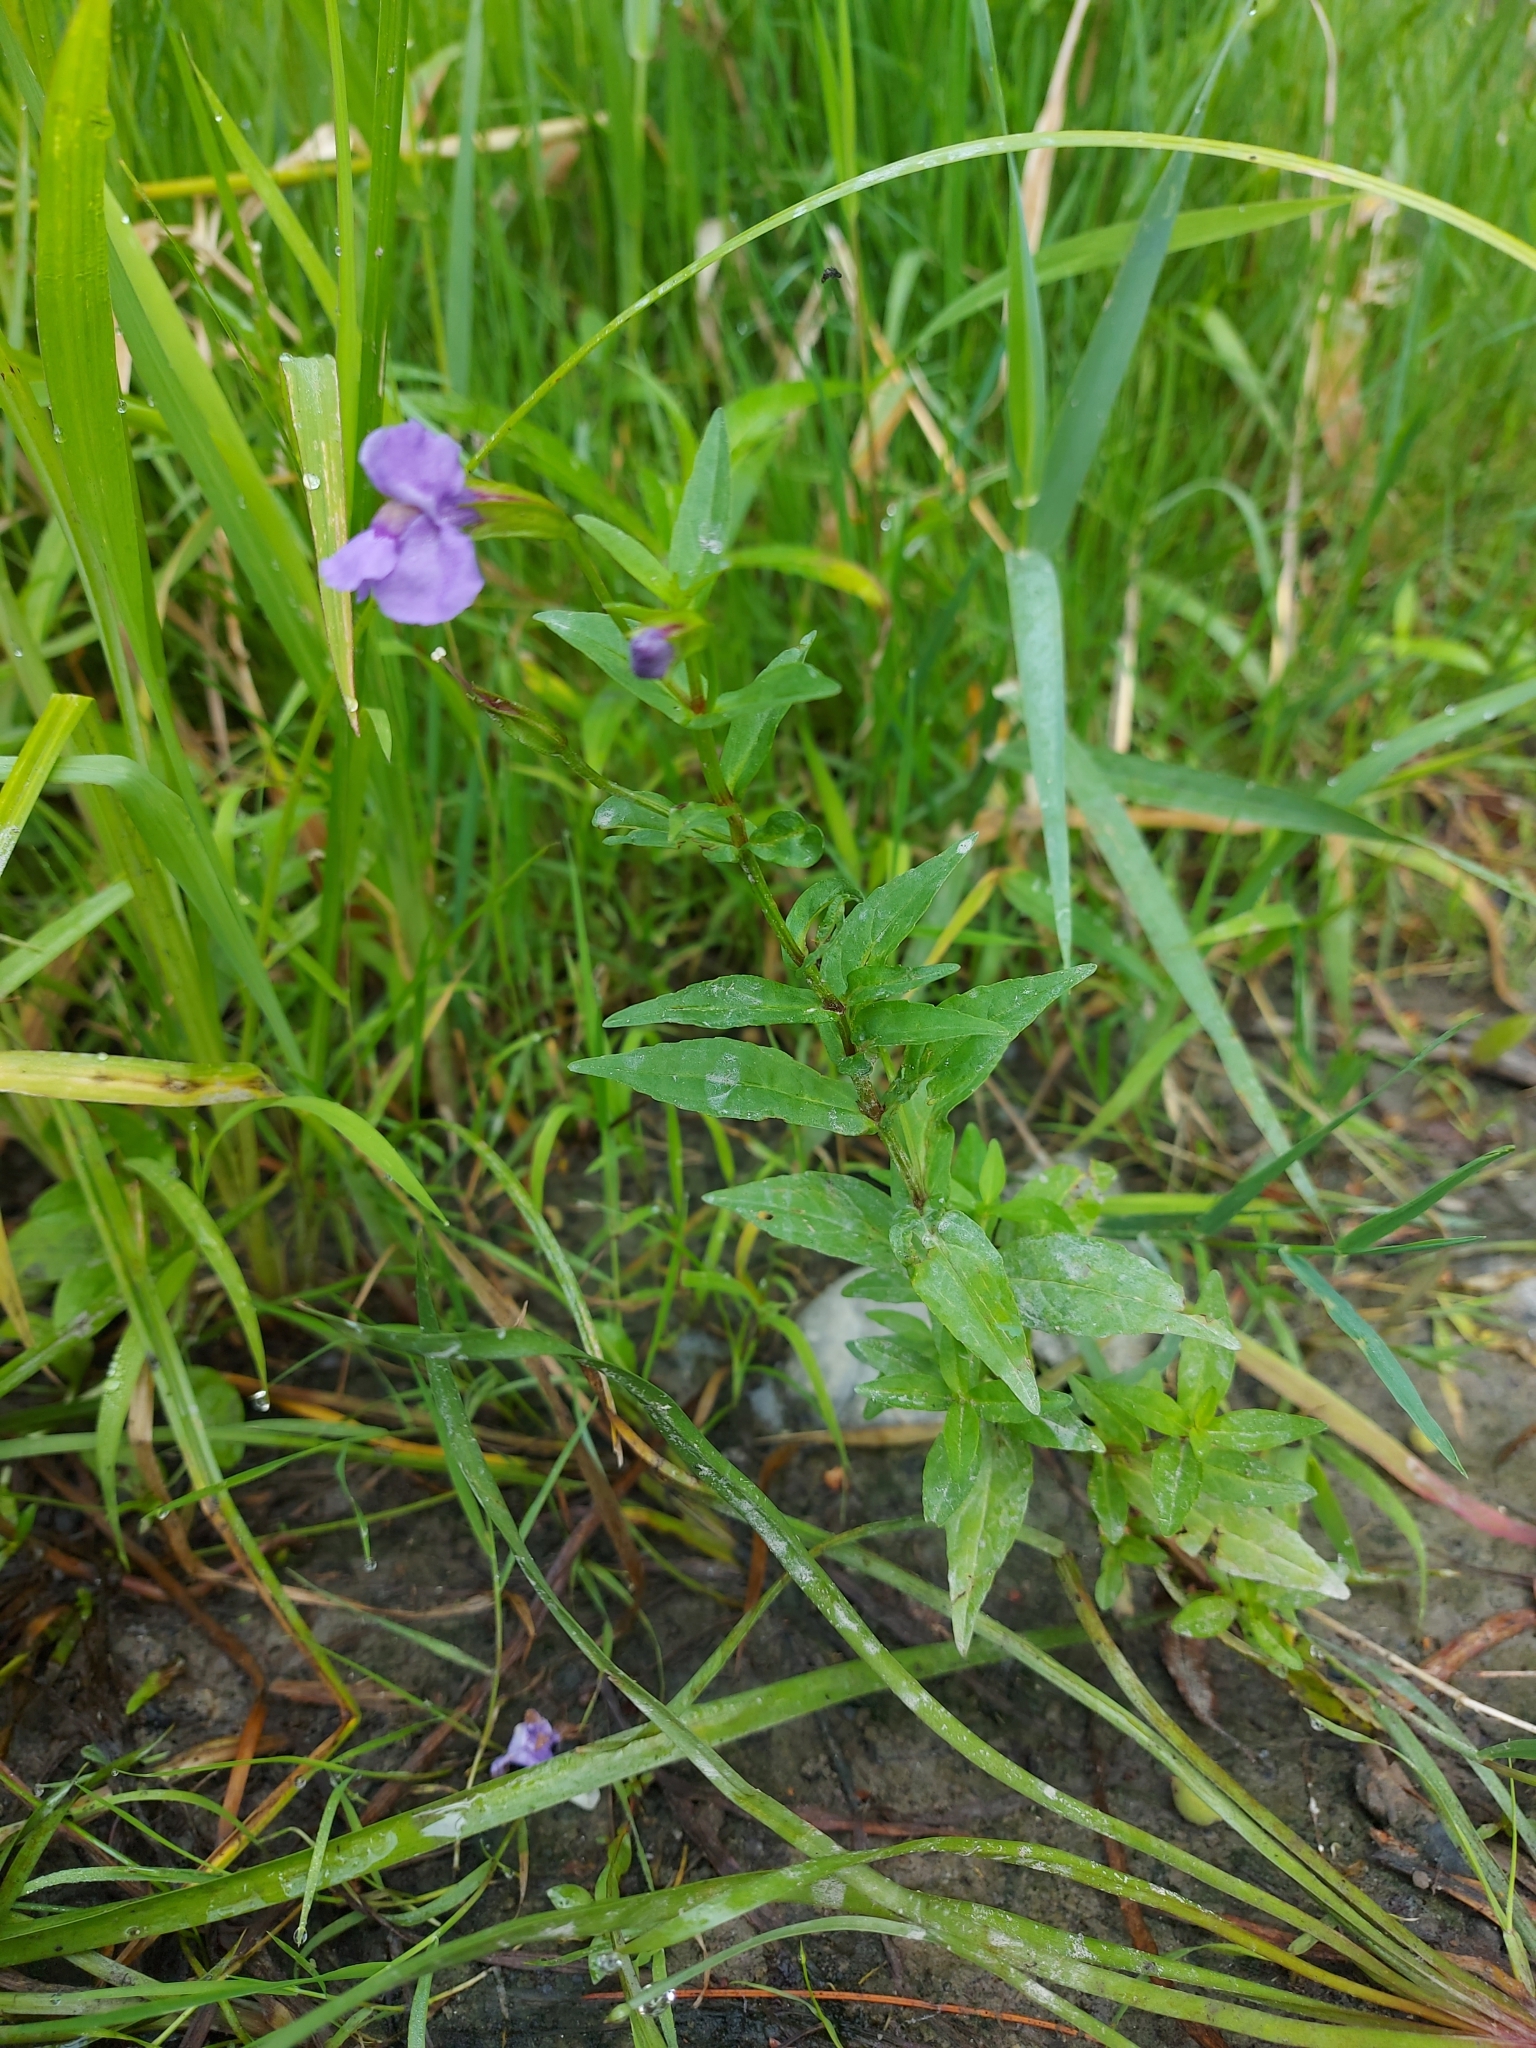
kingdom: Plantae
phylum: Tracheophyta
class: Magnoliopsida
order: Lamiales
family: Phrymaceae
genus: Mimulus
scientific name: Mimulus ringens
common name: Allegheny monkeyflower
